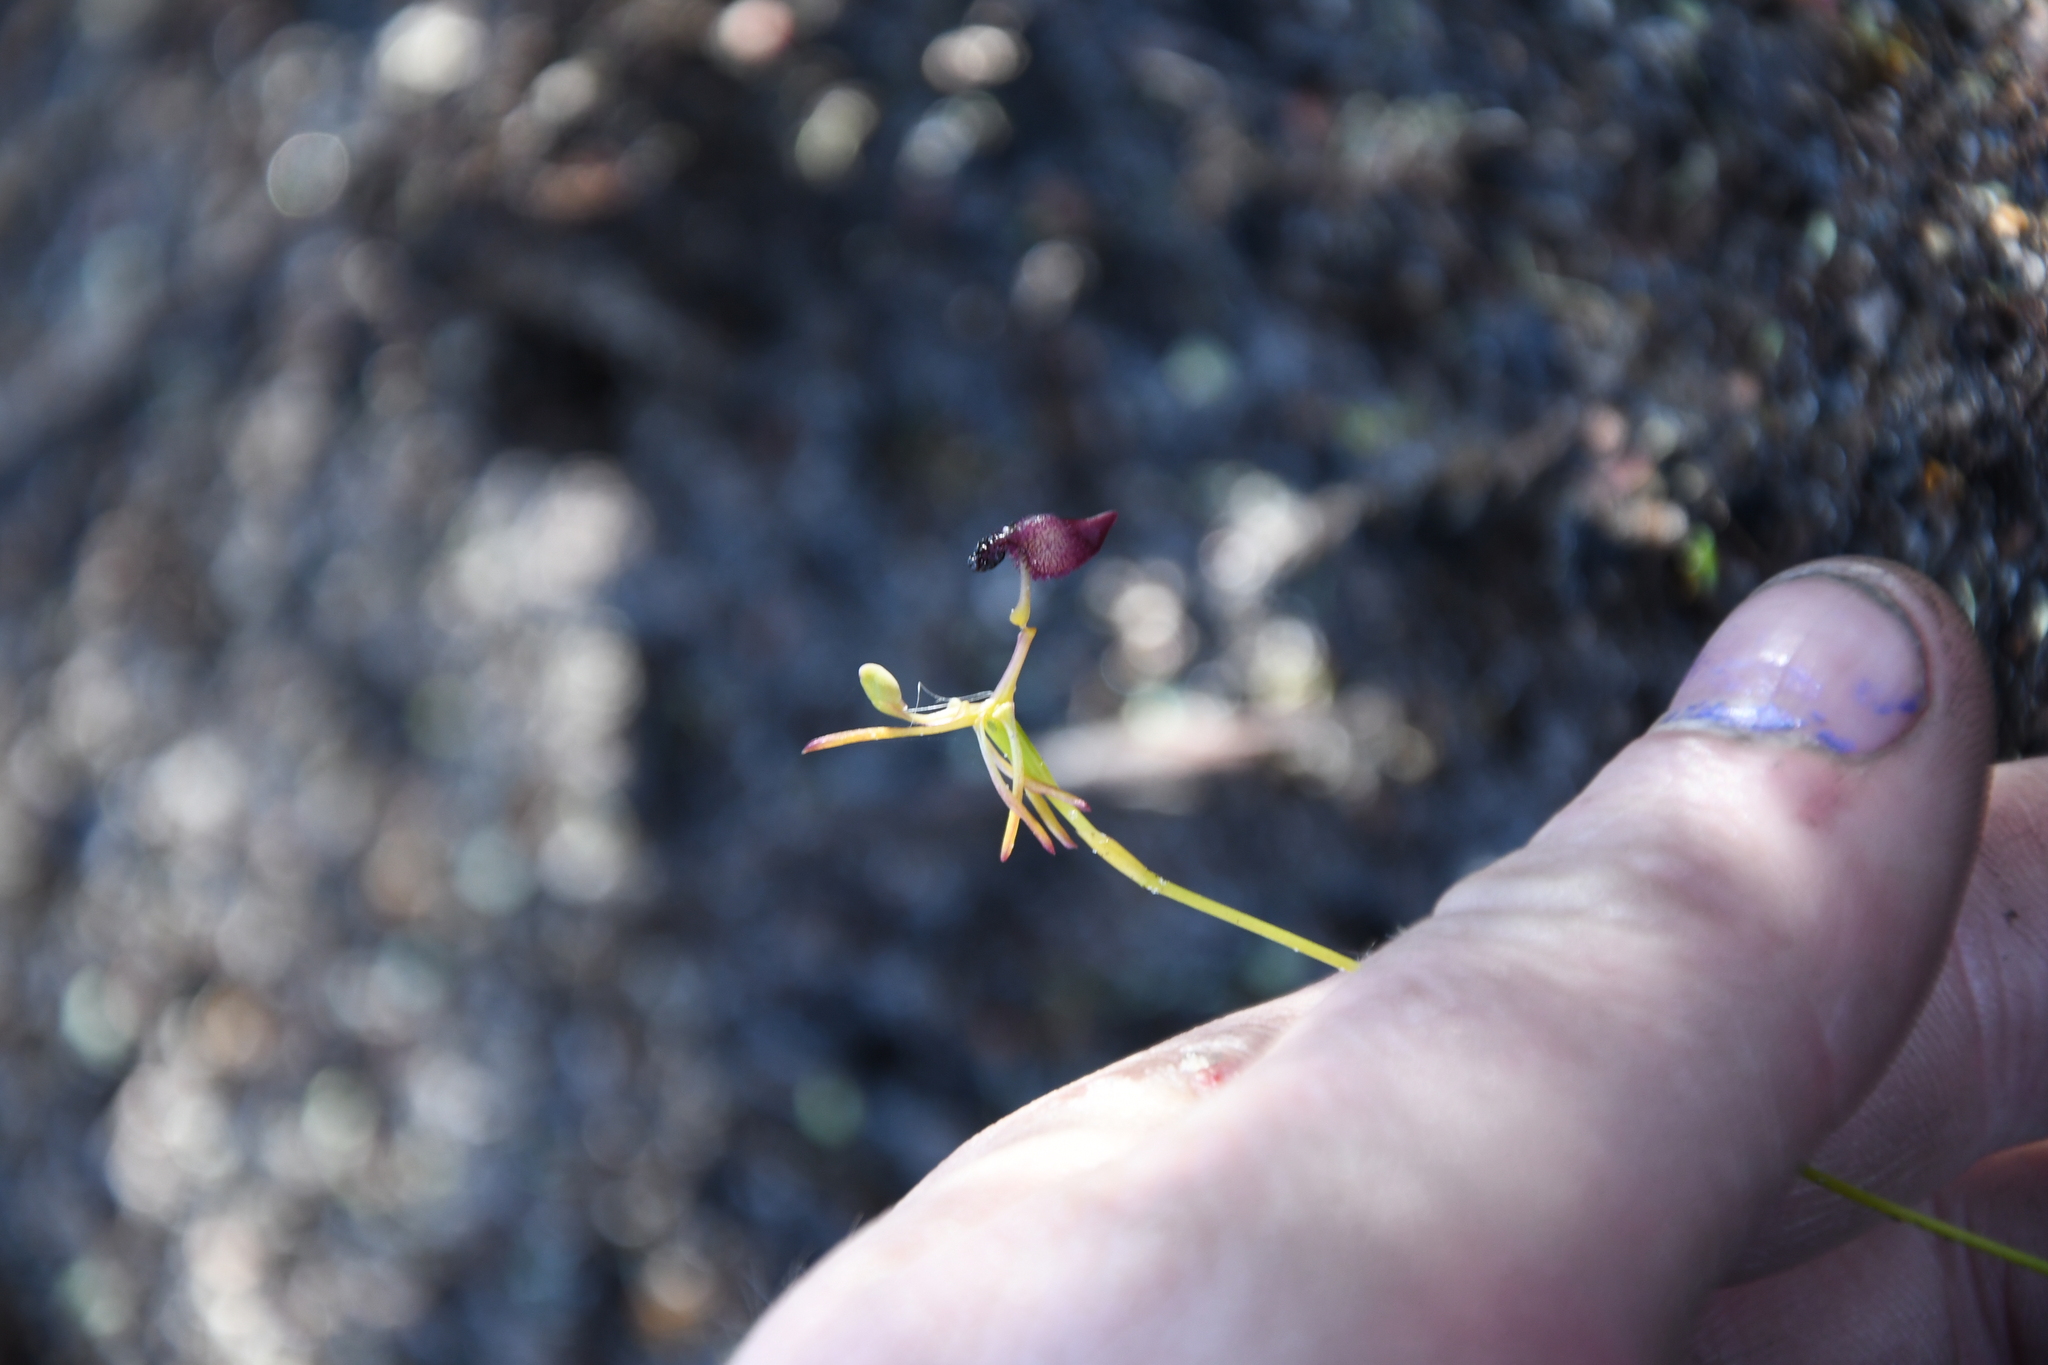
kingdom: Plantae
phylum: Tracheophyta
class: Liliopsida
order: Asparagales
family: Orchidaceae
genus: Drakaea
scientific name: Drakaea glyptodon
